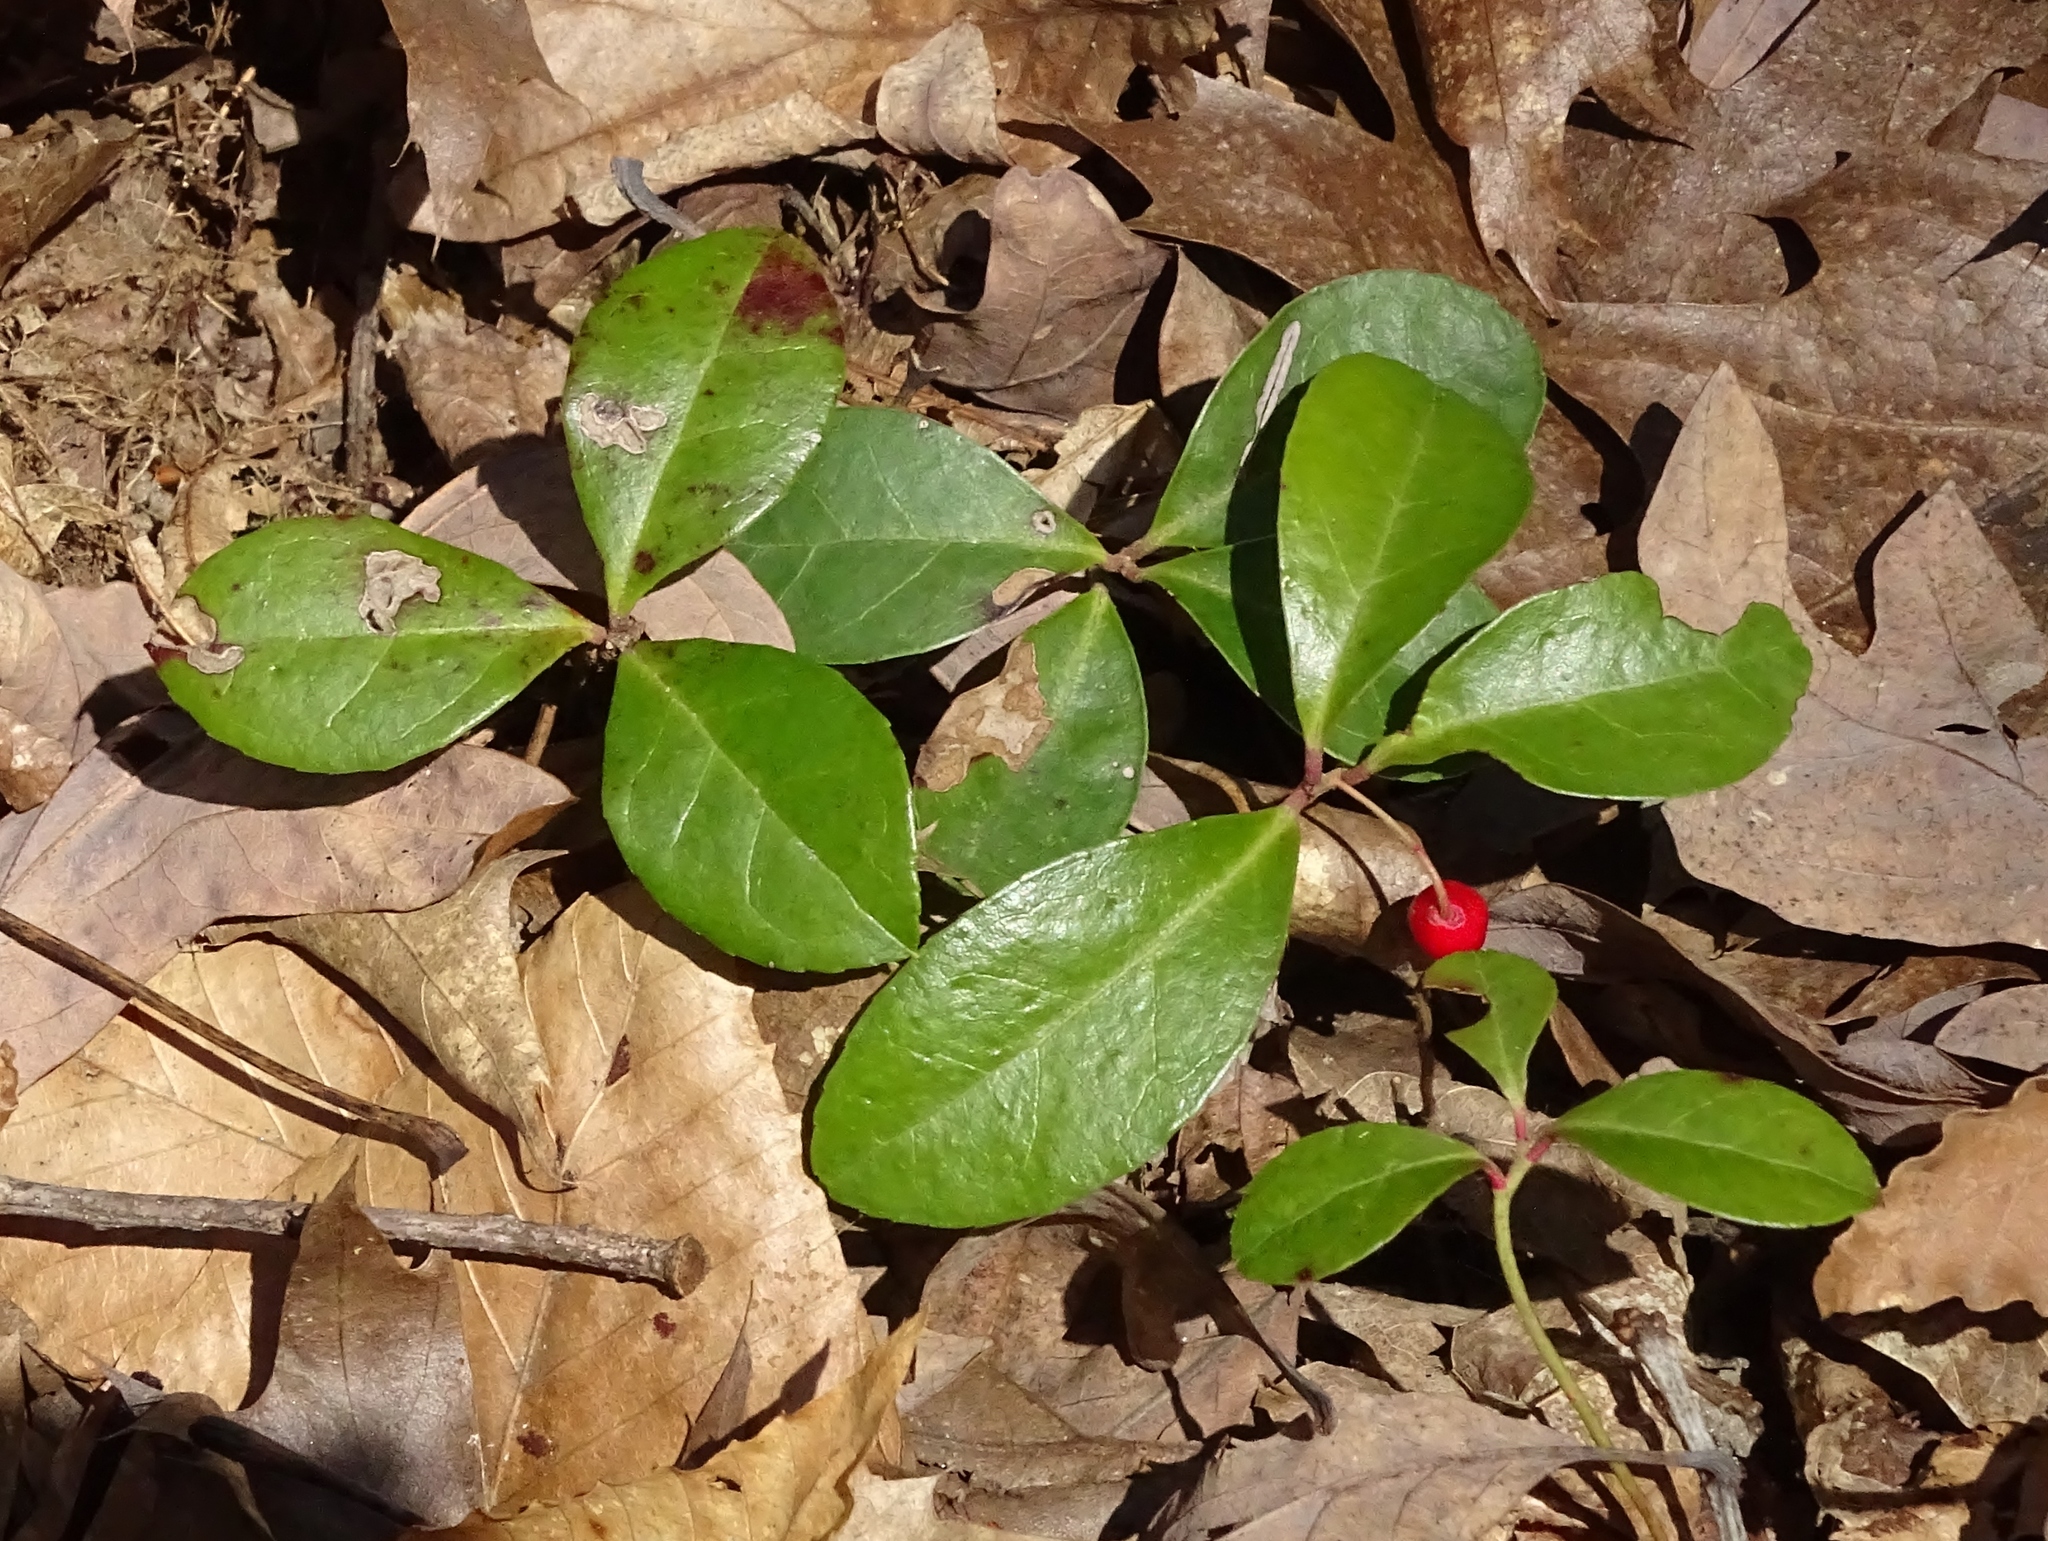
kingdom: Plantae
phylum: Tracheophyta
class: Magnoliopsida
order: Ericales
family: Ericaceae
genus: Gaultheria
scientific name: Gaultheria procumbens
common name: Checkerberry
